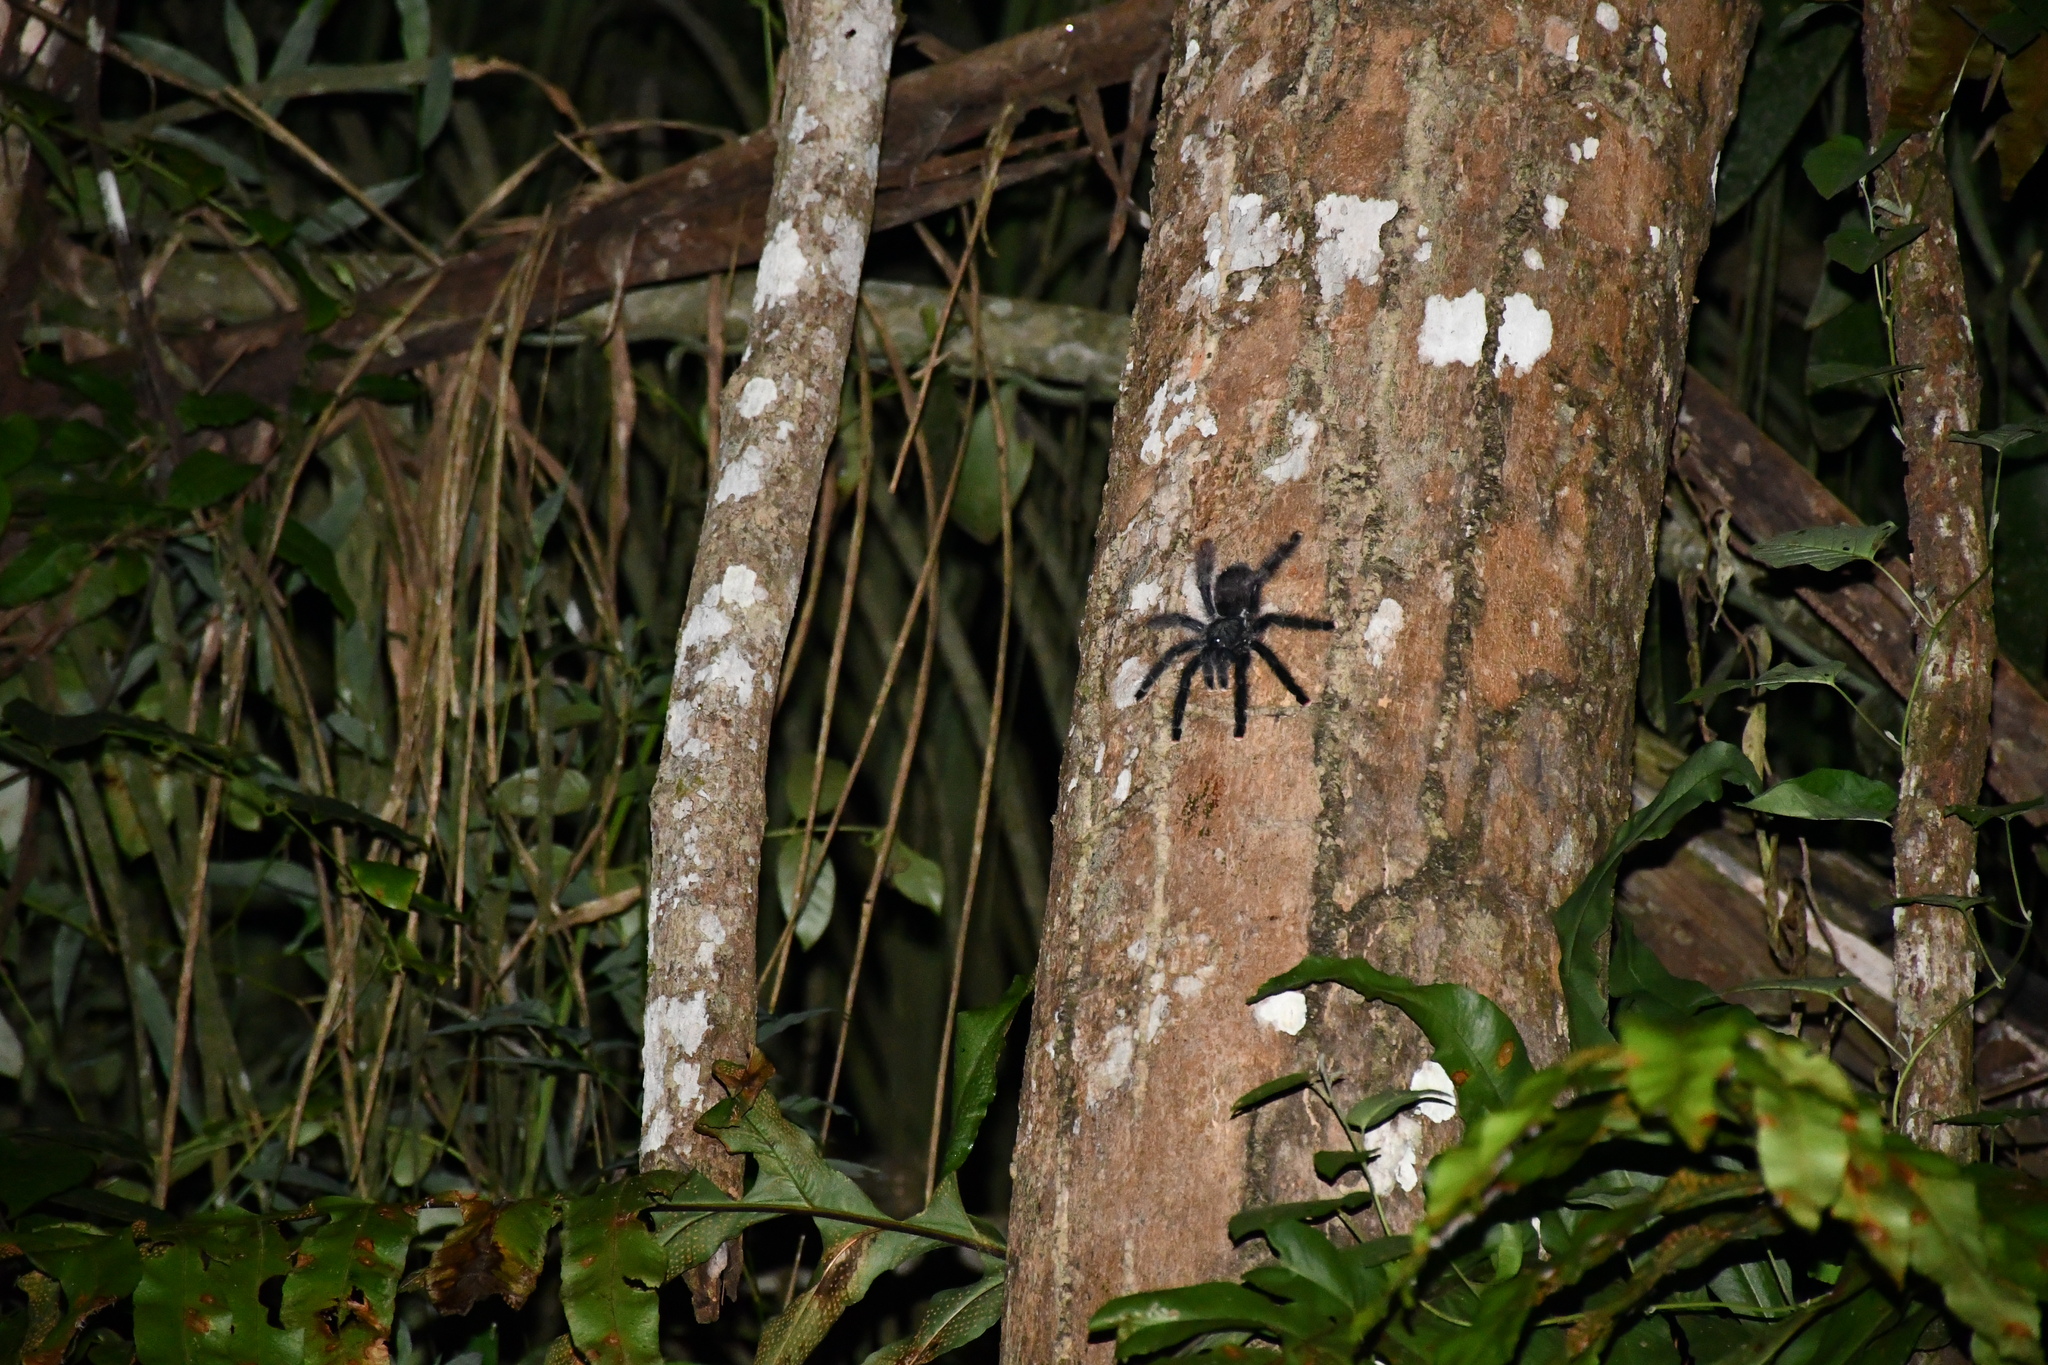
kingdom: Animalia
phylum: Arthropoda
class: Arachnida
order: Araneae
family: Theraphosidae
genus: Avicularia
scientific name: Avicularia avicularia
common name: Tarantula spiders
